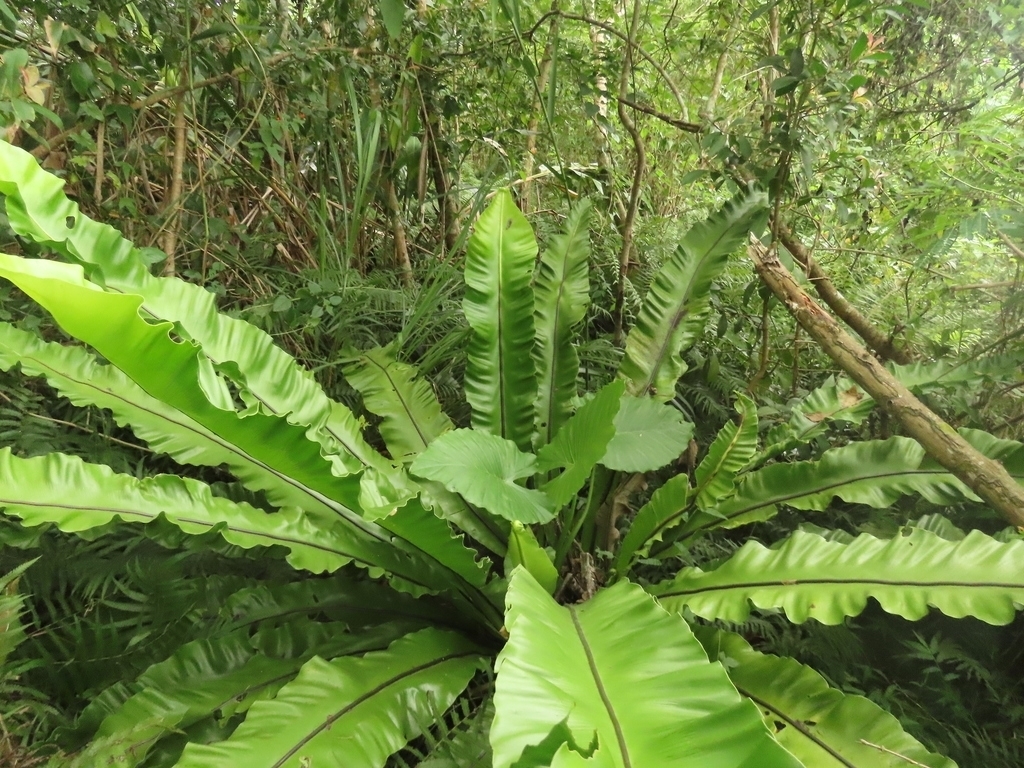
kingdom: Plantae
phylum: Tracheophyta
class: Liliopsida
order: Alismatales
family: Araceae
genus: Alocasia
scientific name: Alocasia odora
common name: Asian taro
